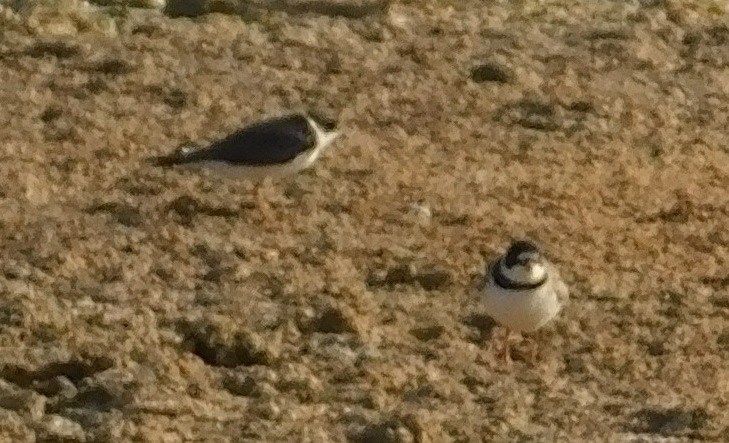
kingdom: Animalia
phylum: Chordata
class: Aves
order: Charadriiformes
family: Charadriidae
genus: Charadrius
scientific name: Charadrius semipalmatus
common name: Semipalmated plover
